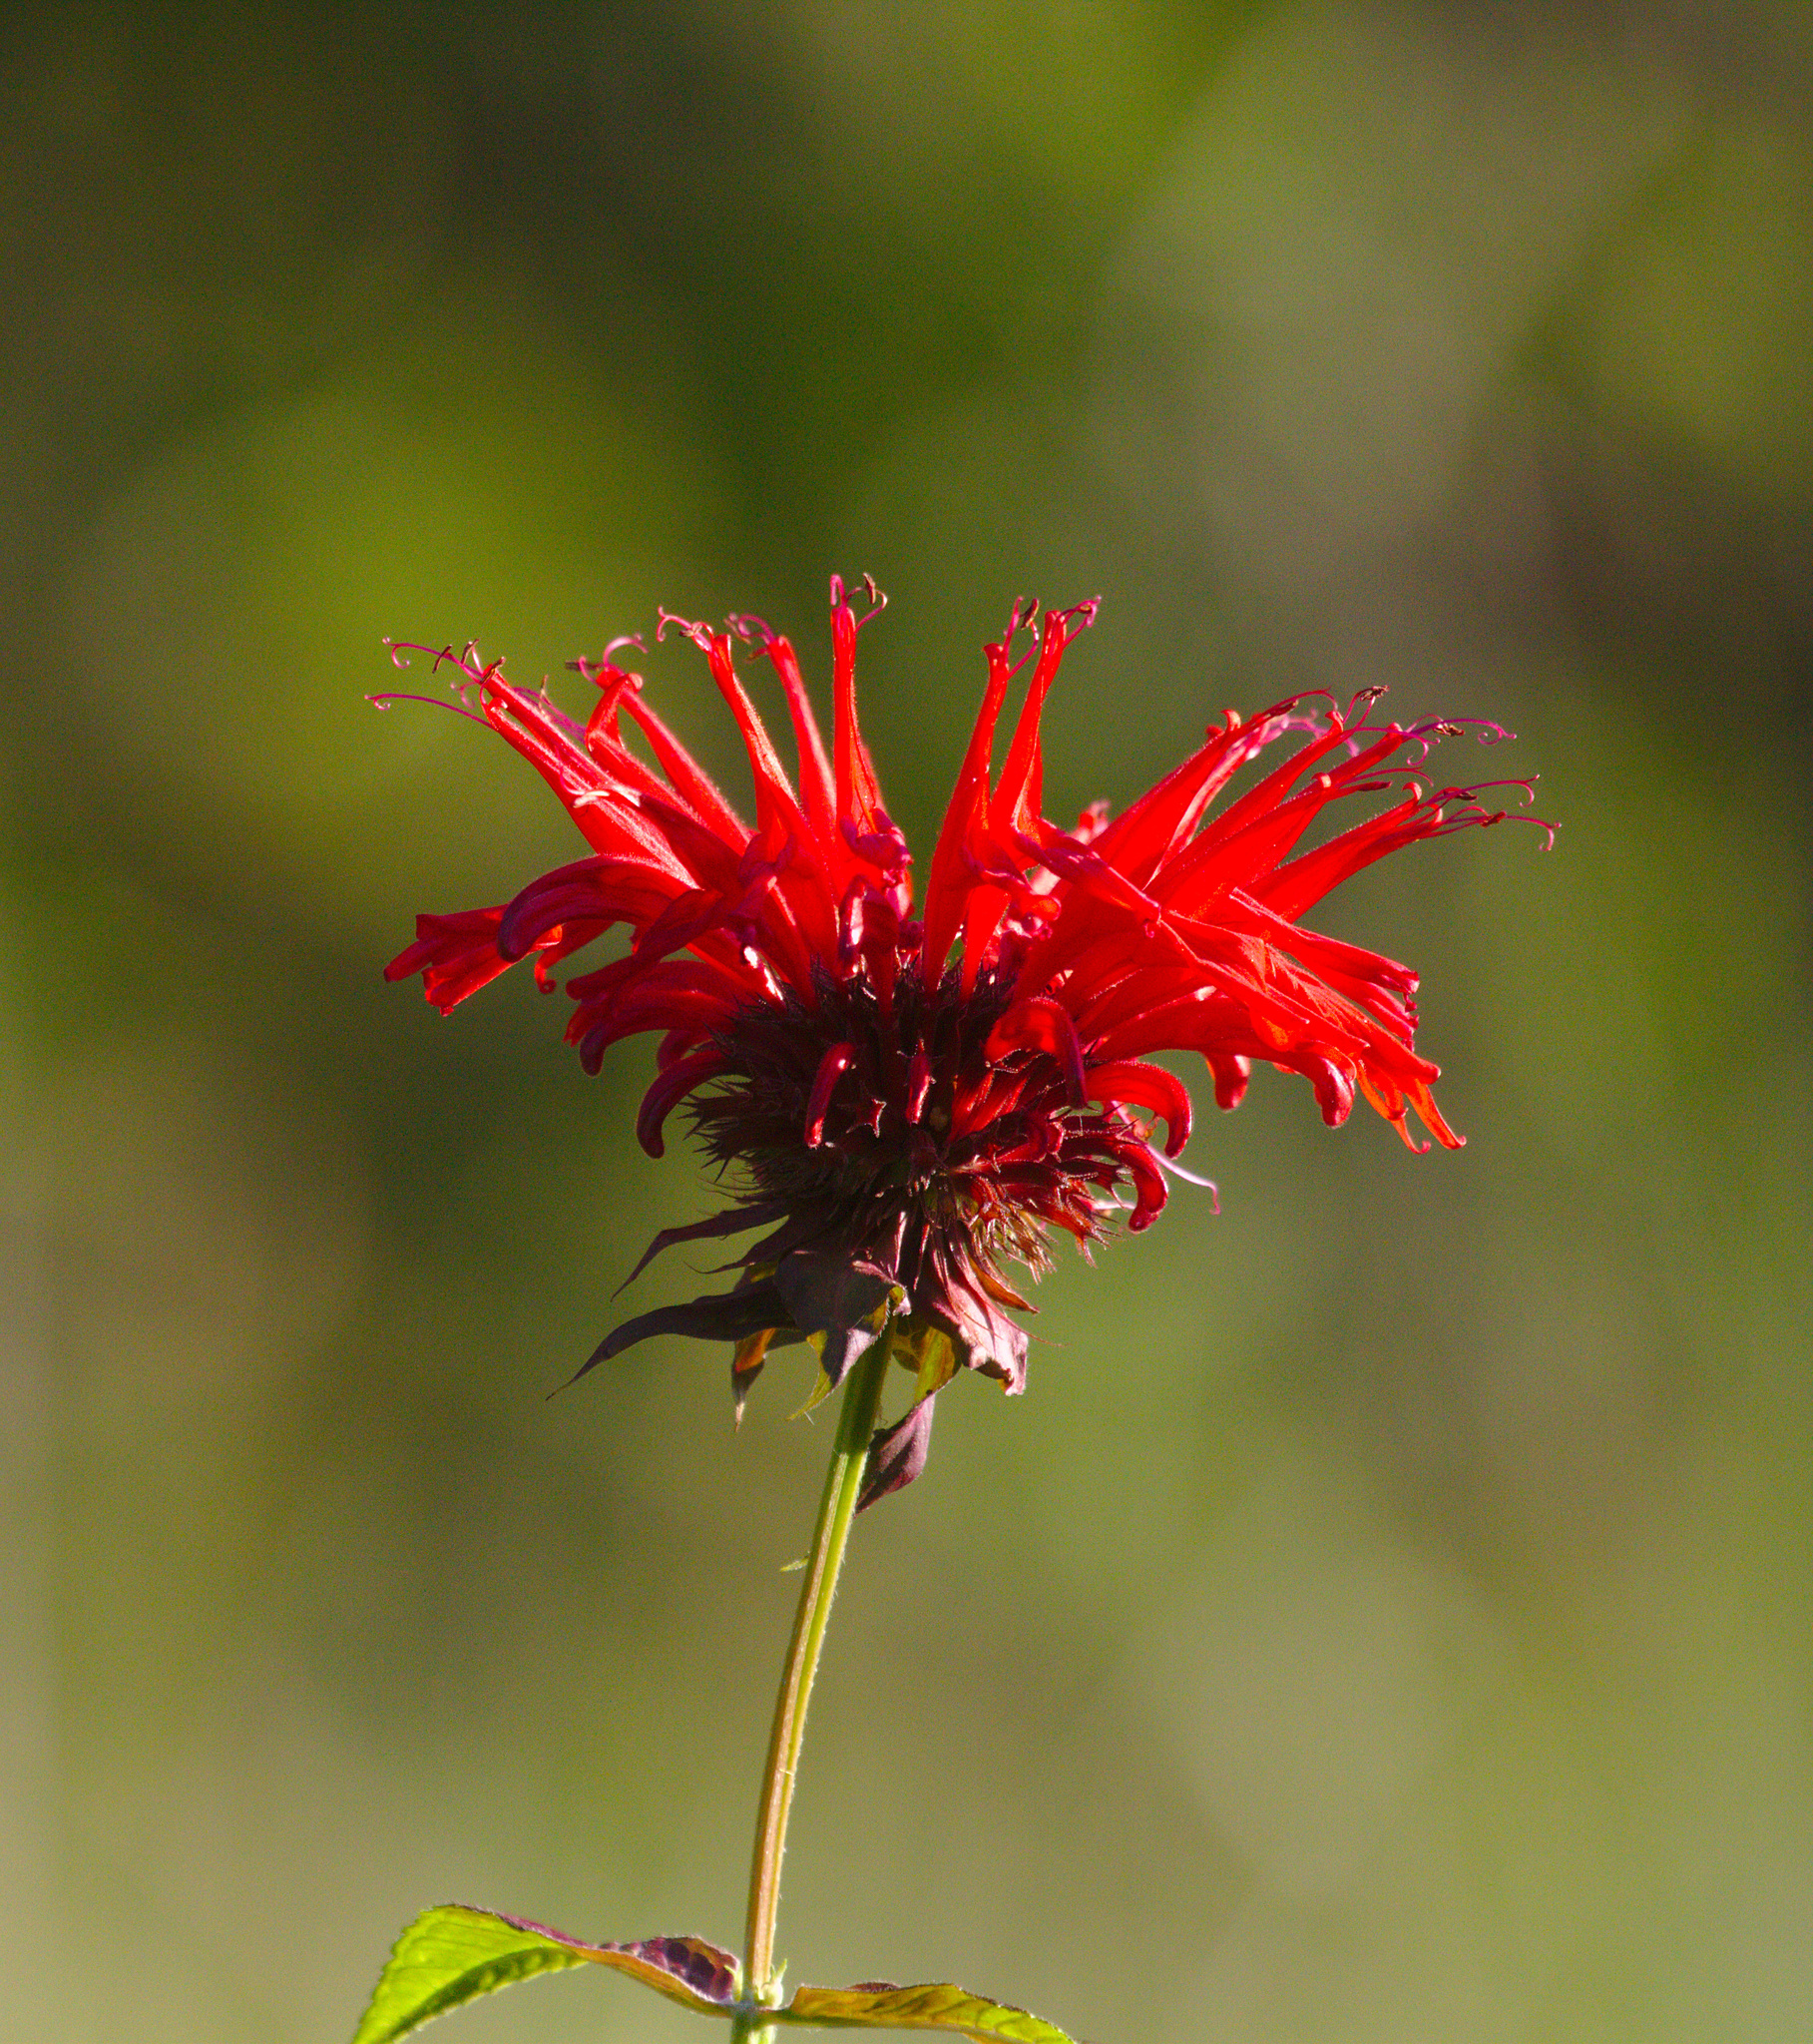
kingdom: Plantae
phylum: Tracheophyta
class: Magnoliopsida
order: Lamiales
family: Lamiaceae
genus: Monarda
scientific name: Monarda didyma
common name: Beebalm
